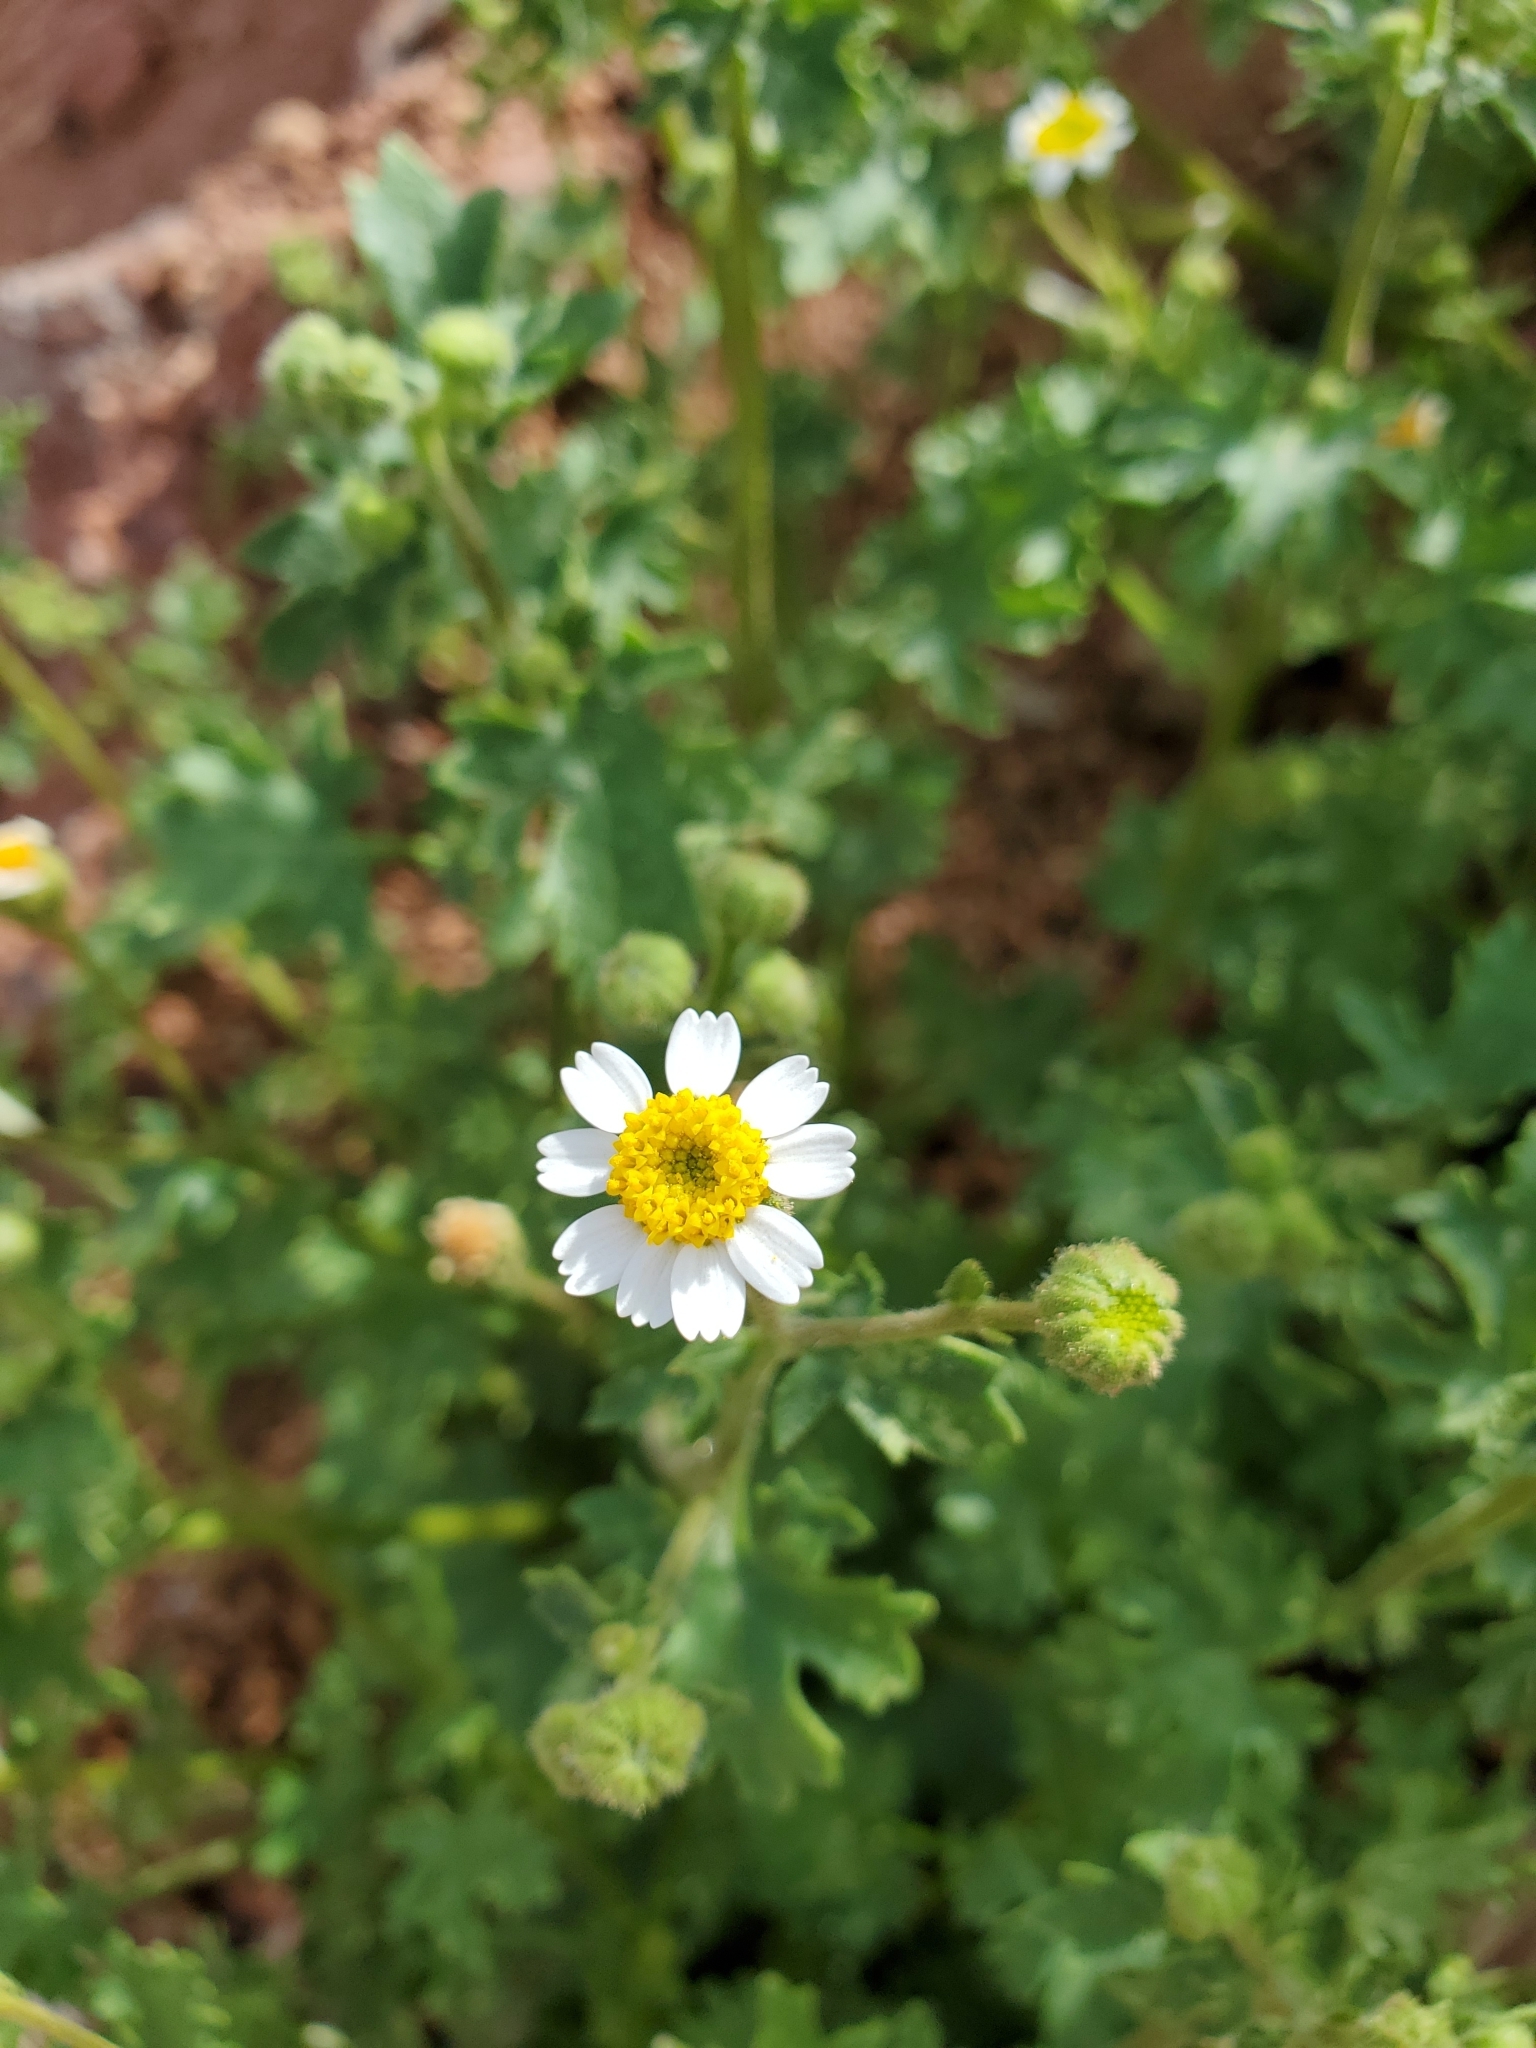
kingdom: Plantae
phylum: Tracheophyta
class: Magnoliopsida
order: Asterales
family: Asteraceae
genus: Laphamia
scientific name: Laphamia emoryi
